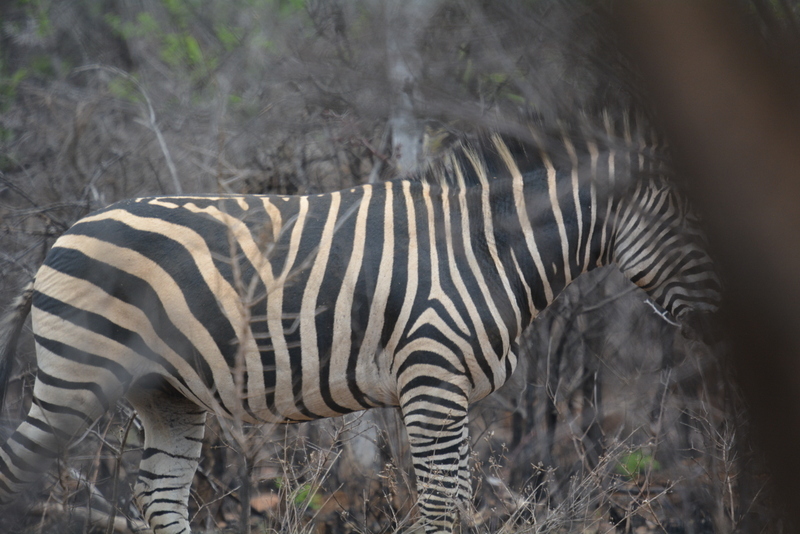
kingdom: Animalia
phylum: Chordata
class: Mammalia
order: Perissodactyla
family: Equidae
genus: Equus
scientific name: Equus quagga
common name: Plains zebra
